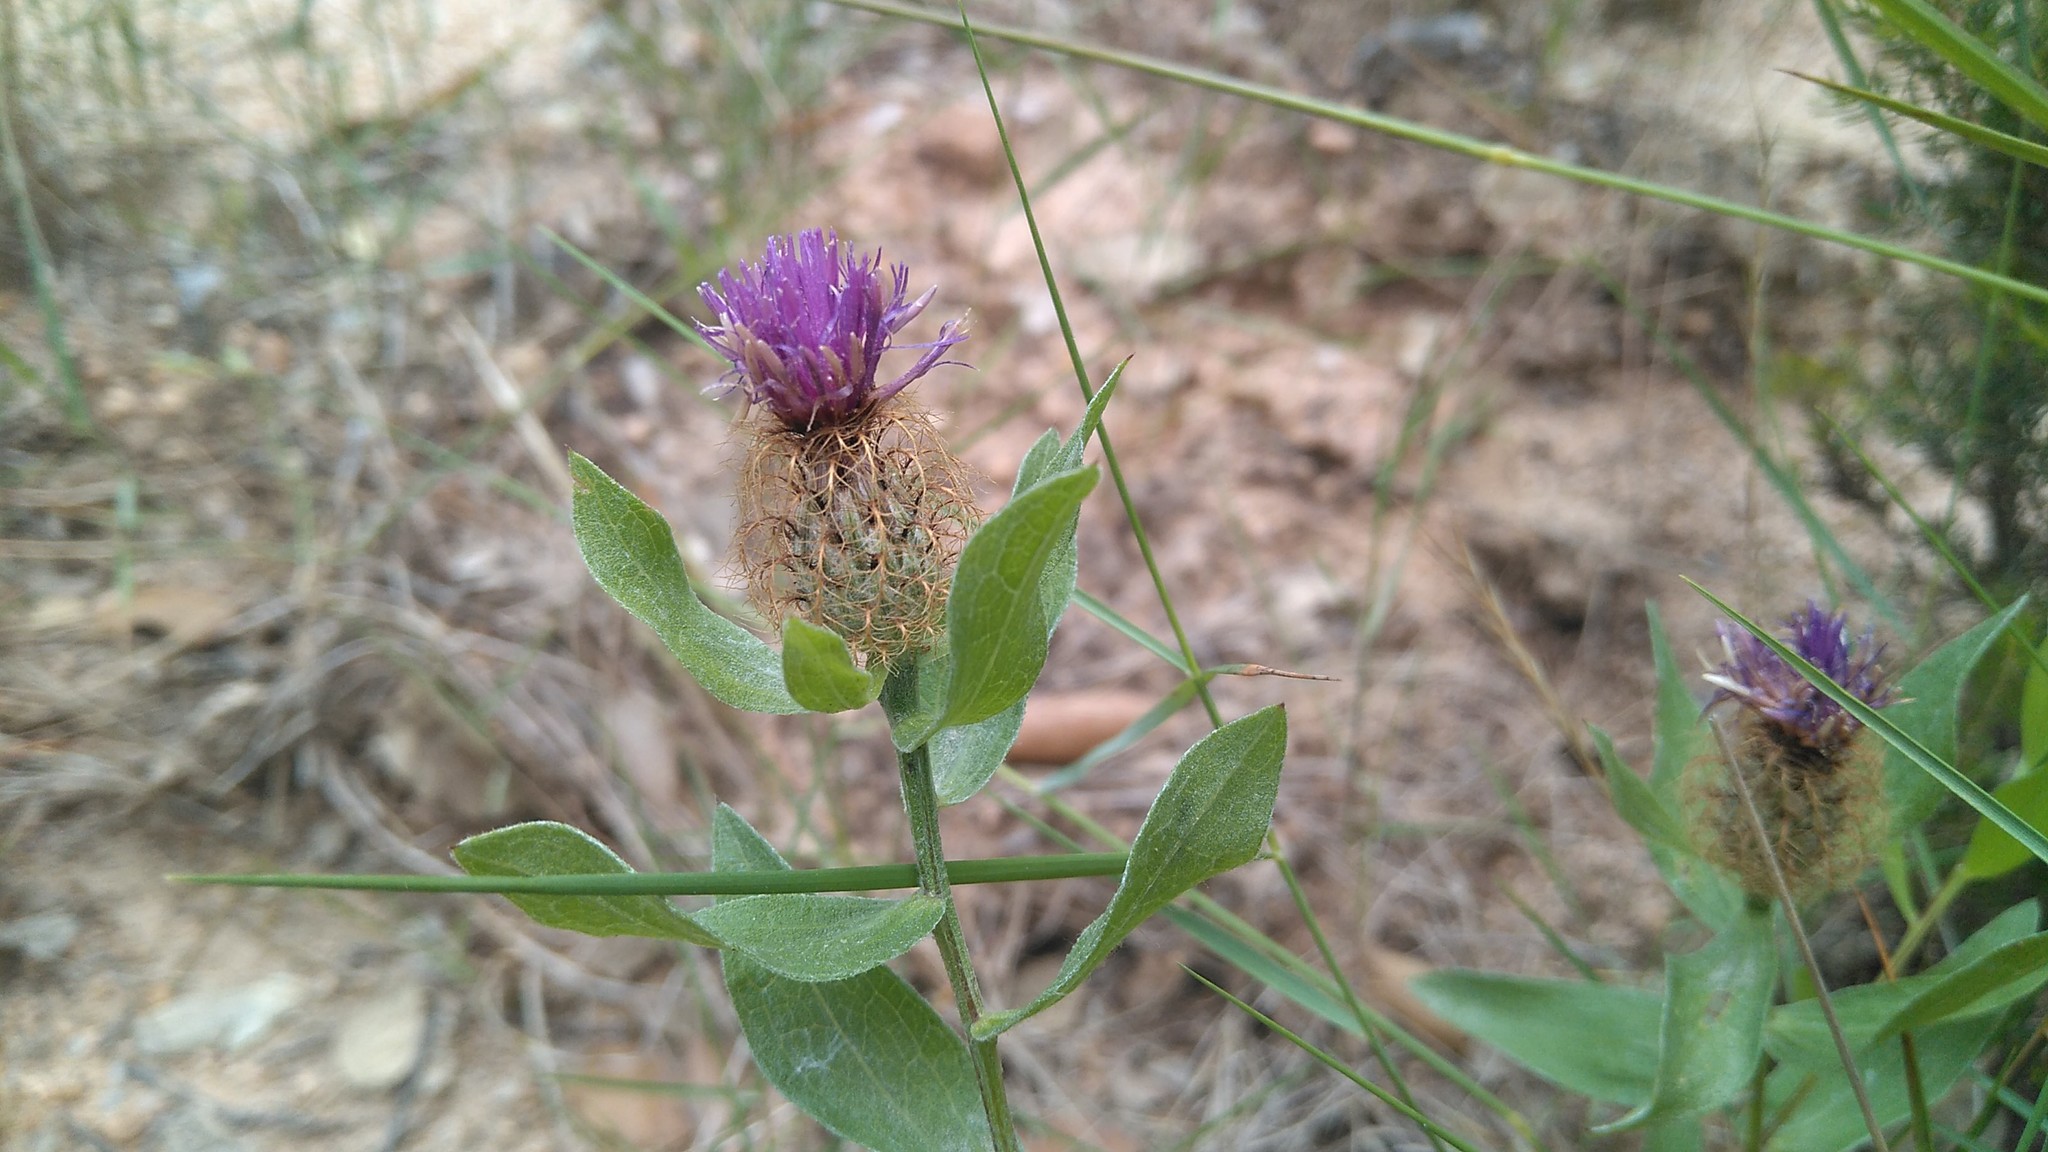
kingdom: Plantae
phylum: Tracheophyta
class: Magnoliopsida
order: Asterales
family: Asteraceae
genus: Centaurea
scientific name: Centaurea pectinata
